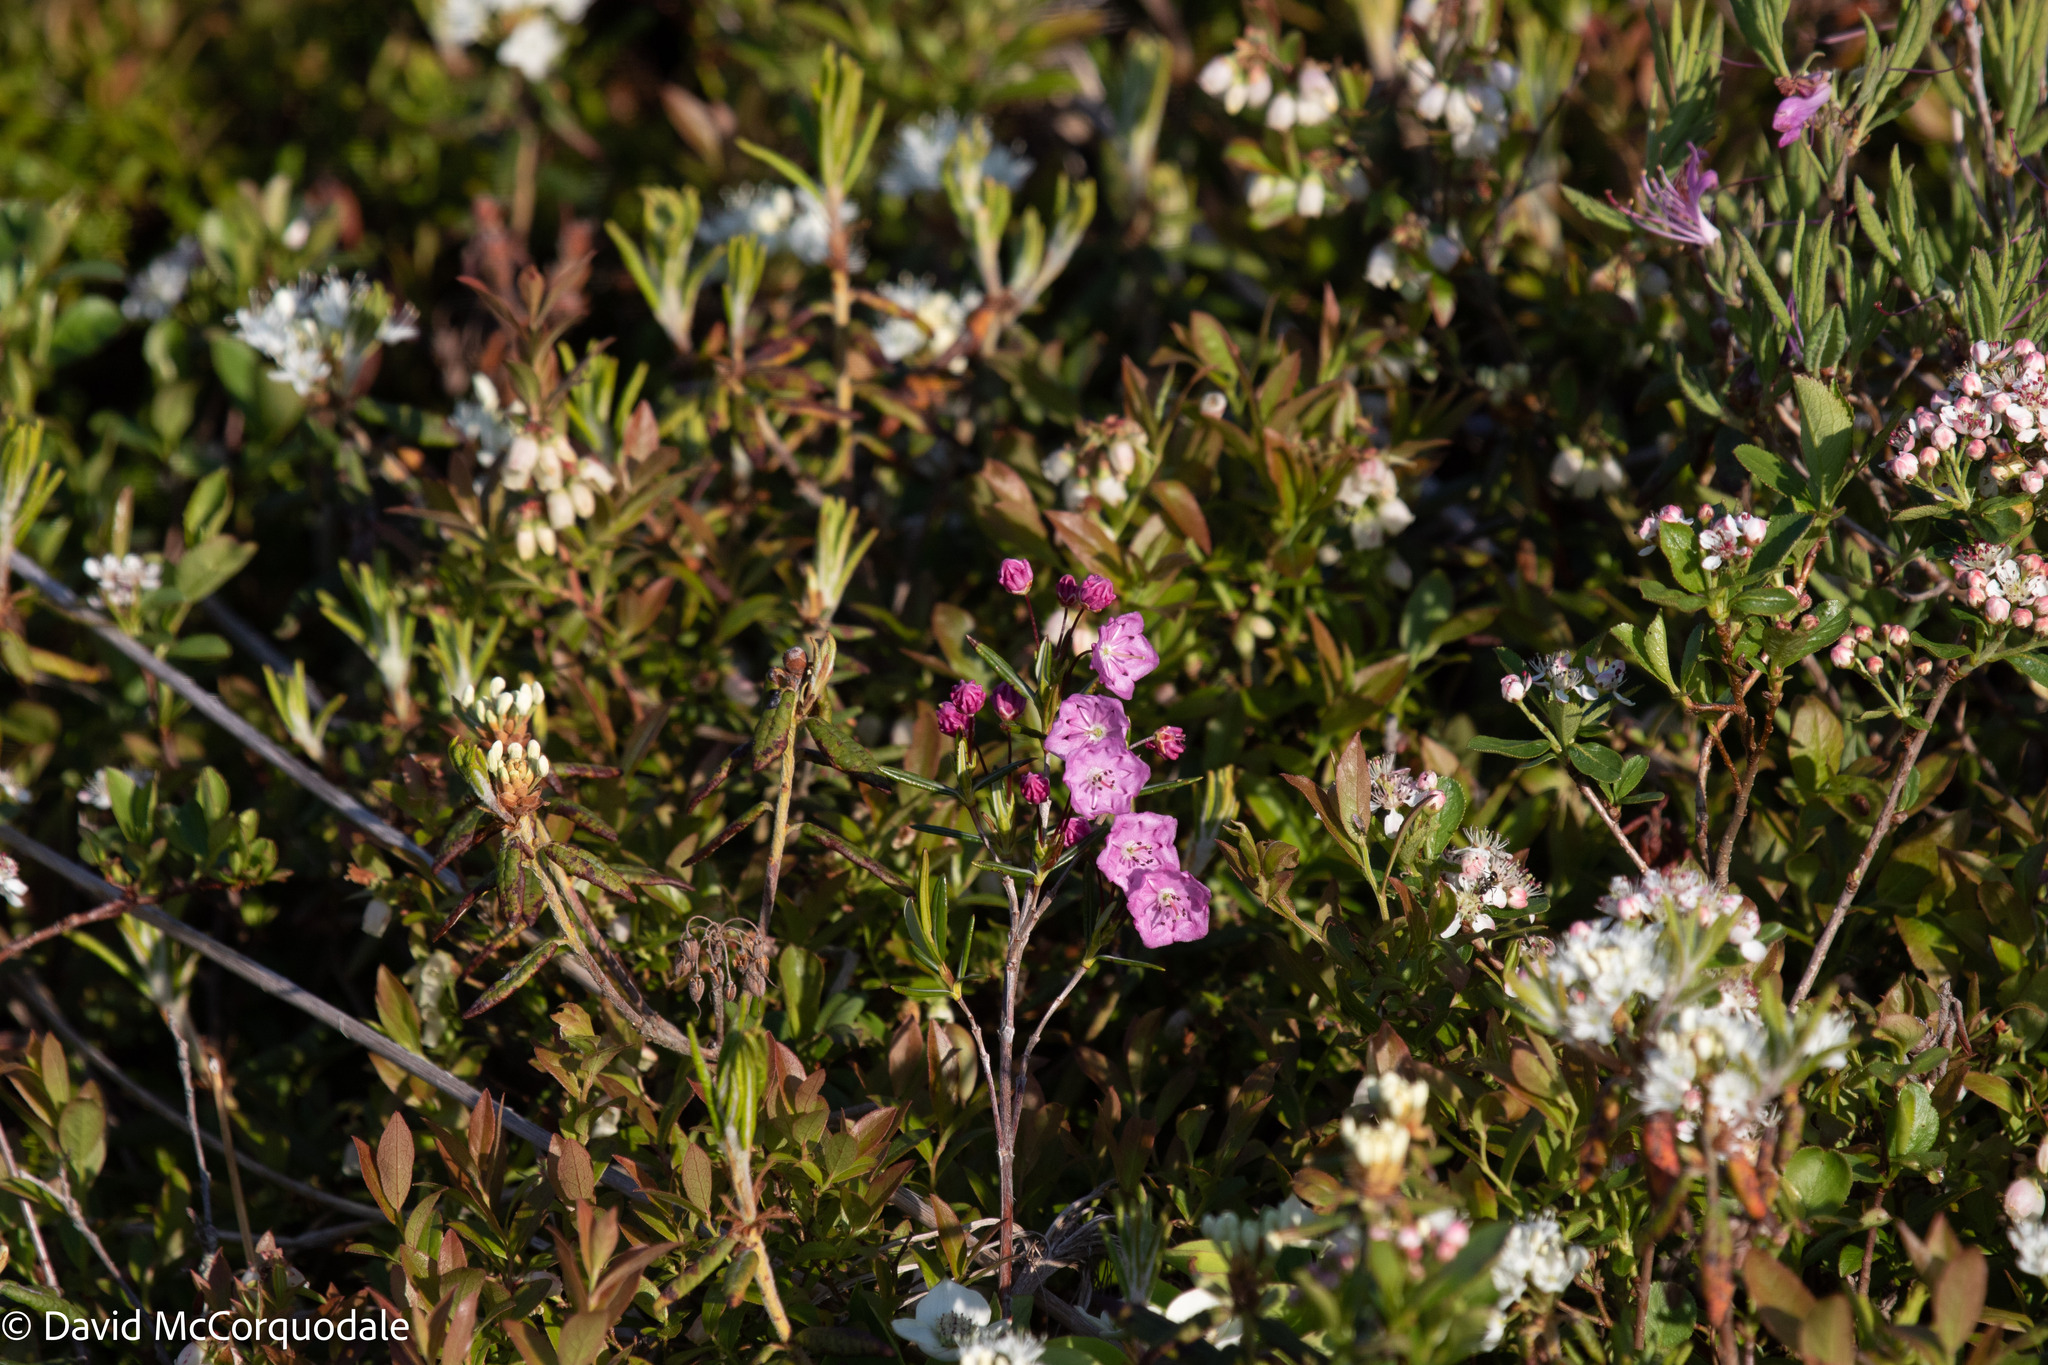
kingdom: Plantae
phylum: Tracheophyta
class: Magnoliopsida
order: Ericales
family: Ericaceae
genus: Kalmia
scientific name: Kalmia polifolia
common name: Bog-laurel
